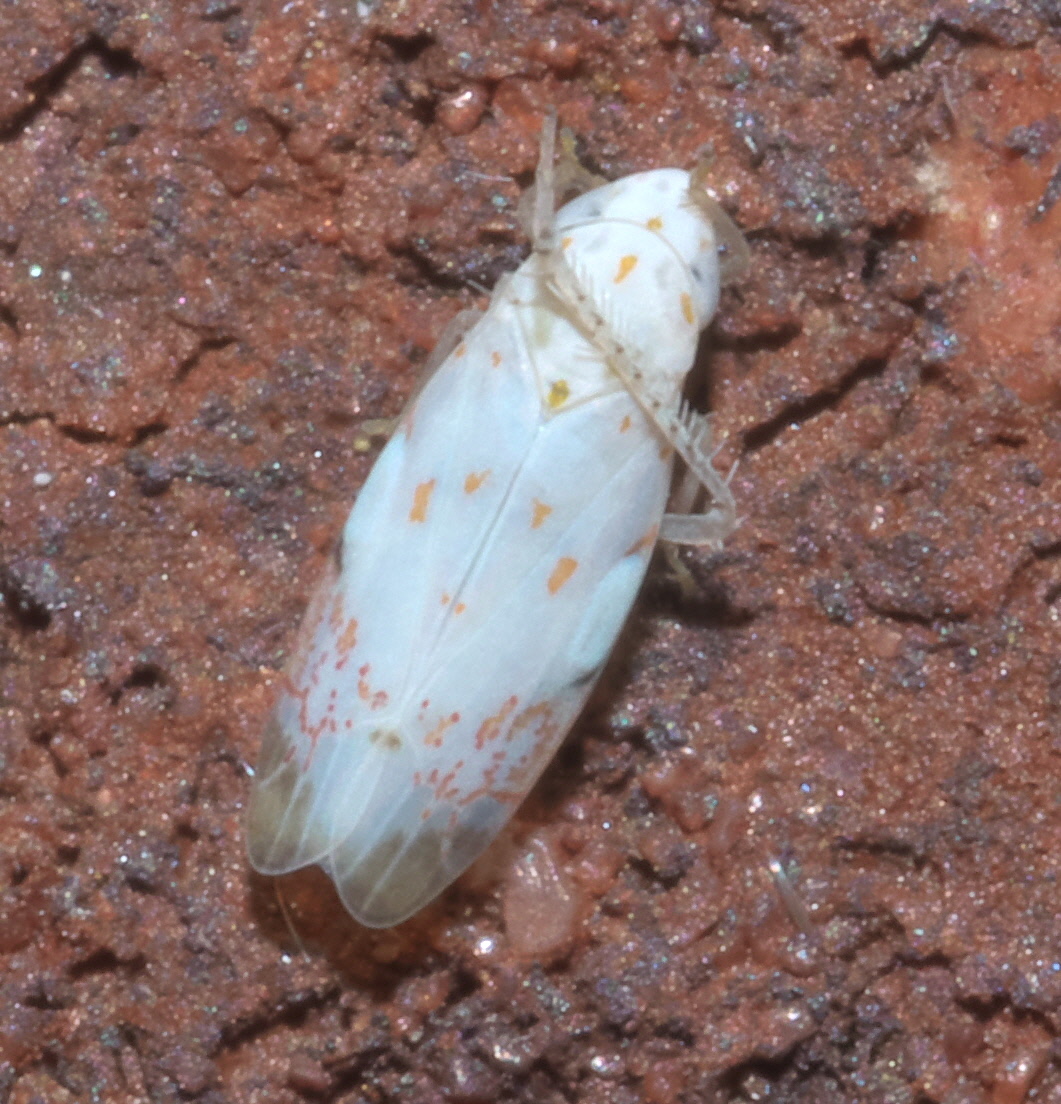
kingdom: Animalia
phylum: Arthropoda
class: Insecta
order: Hemiptera
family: Cicadellidae
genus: Eratoneura
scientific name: Eratoneura stephensoni
